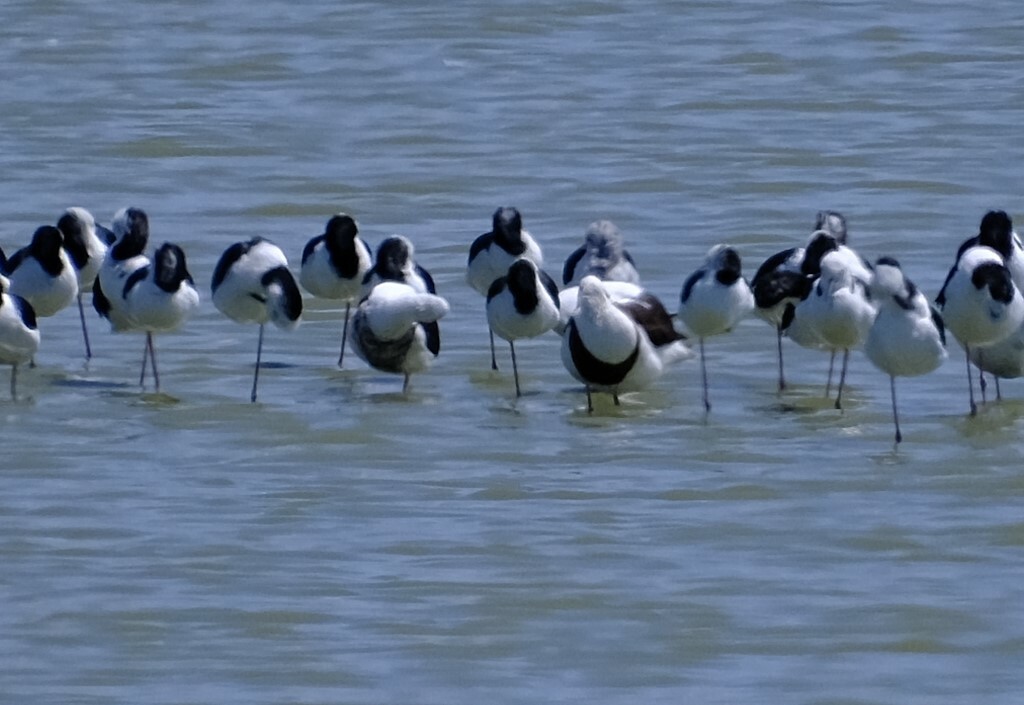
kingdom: Animalia
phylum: Chordata
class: Aves
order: Charadriiformes
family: Recurvirostridae
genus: Cladorhynchus
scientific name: Cladorhynchus leucocephalus
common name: Banded stilt
